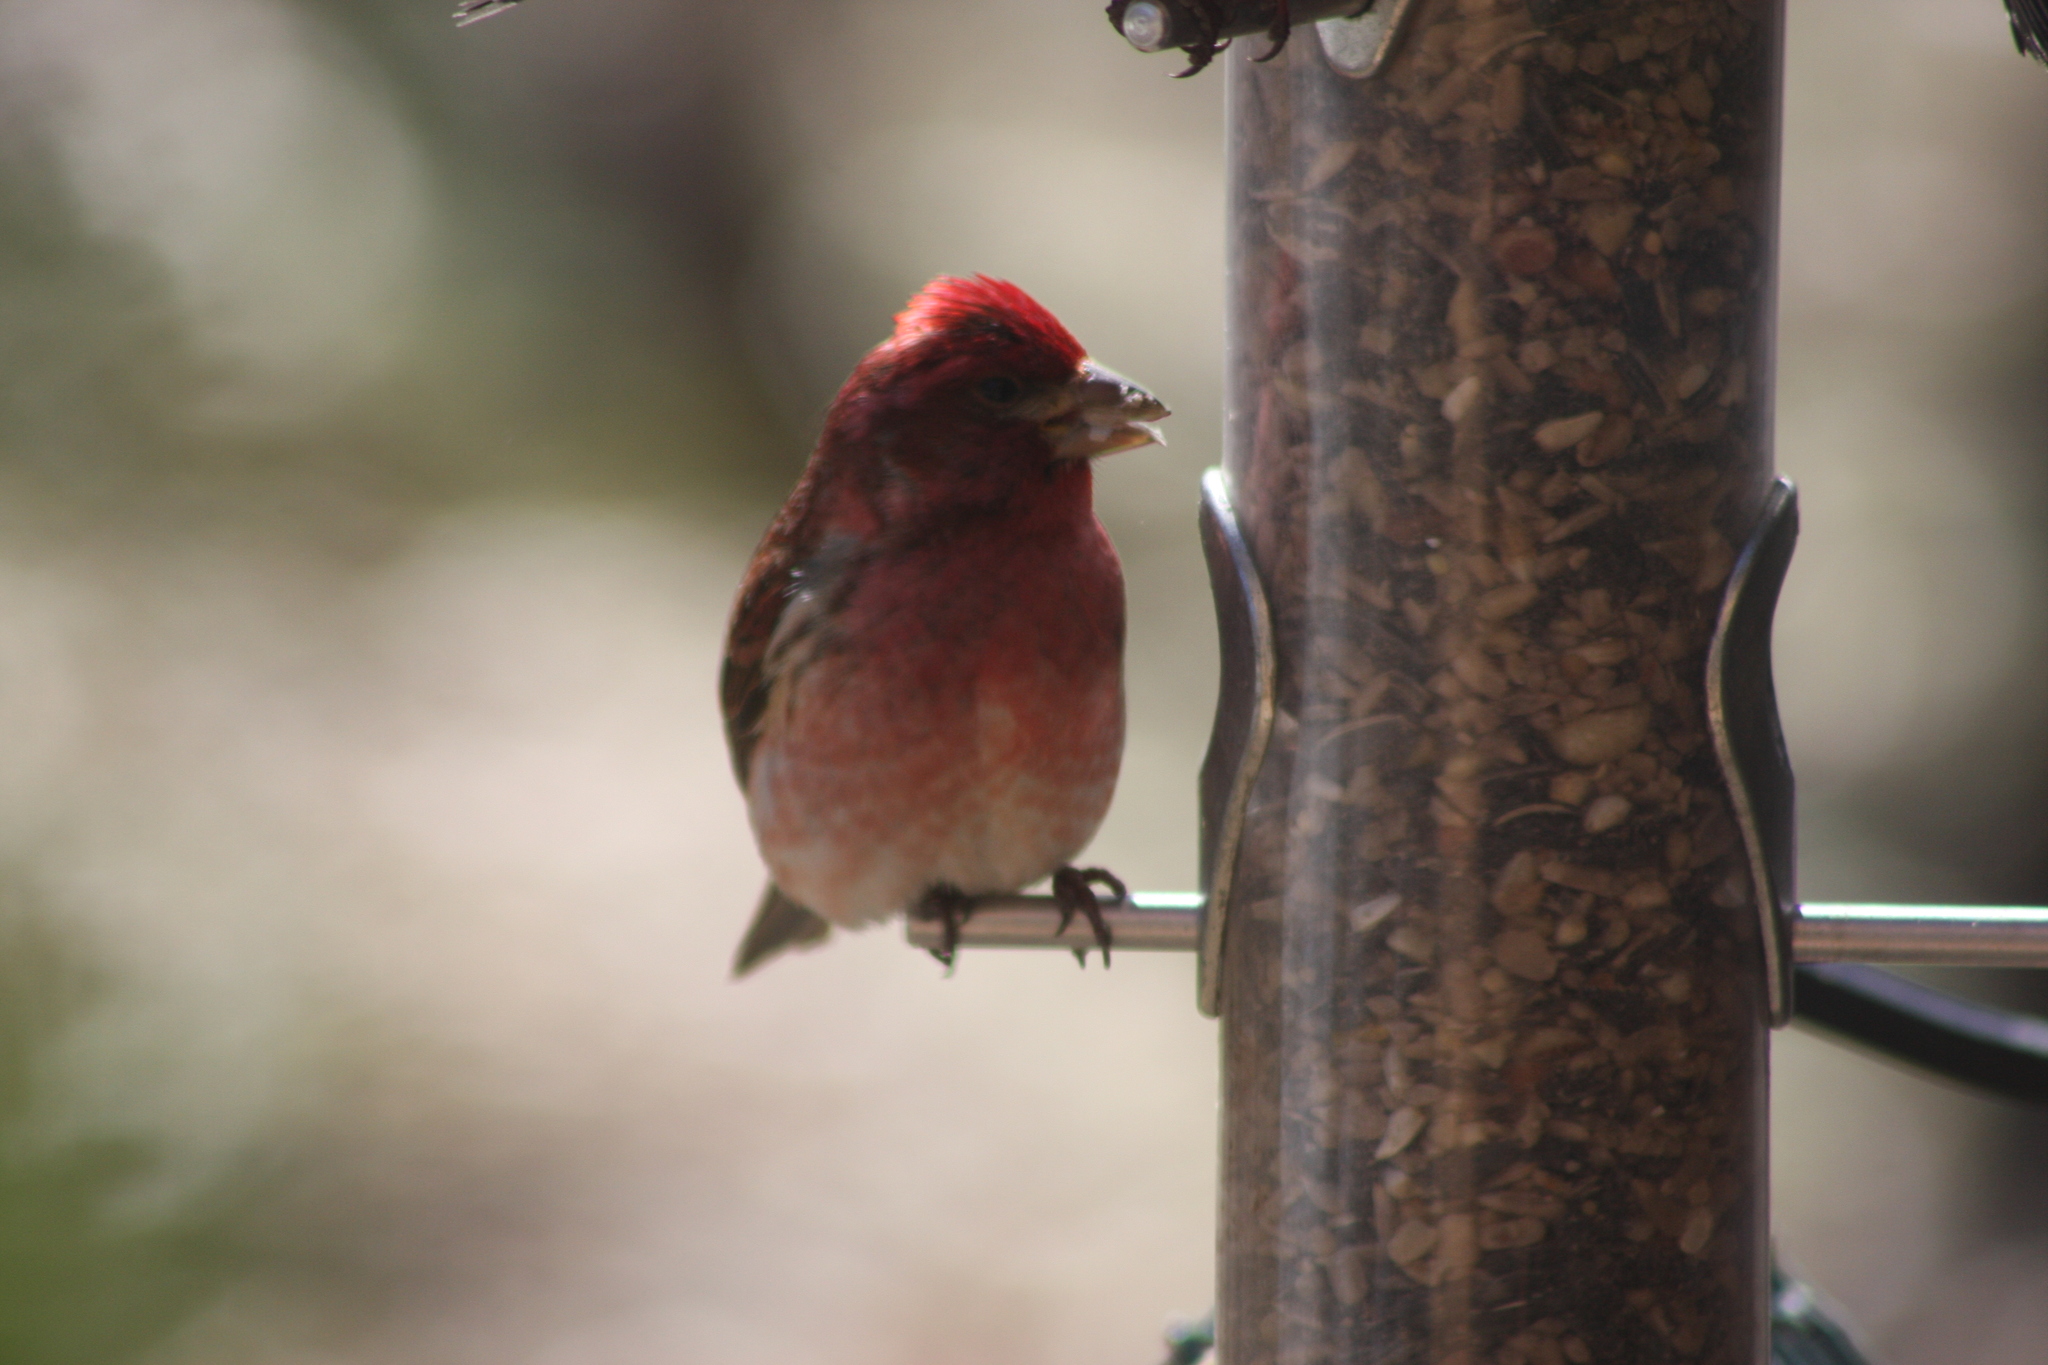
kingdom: Animalia
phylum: Chordata
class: Aves
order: Passeriformes
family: Fringillidae
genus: Haemorhous
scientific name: Haemorhous purpureus
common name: Purple finch
